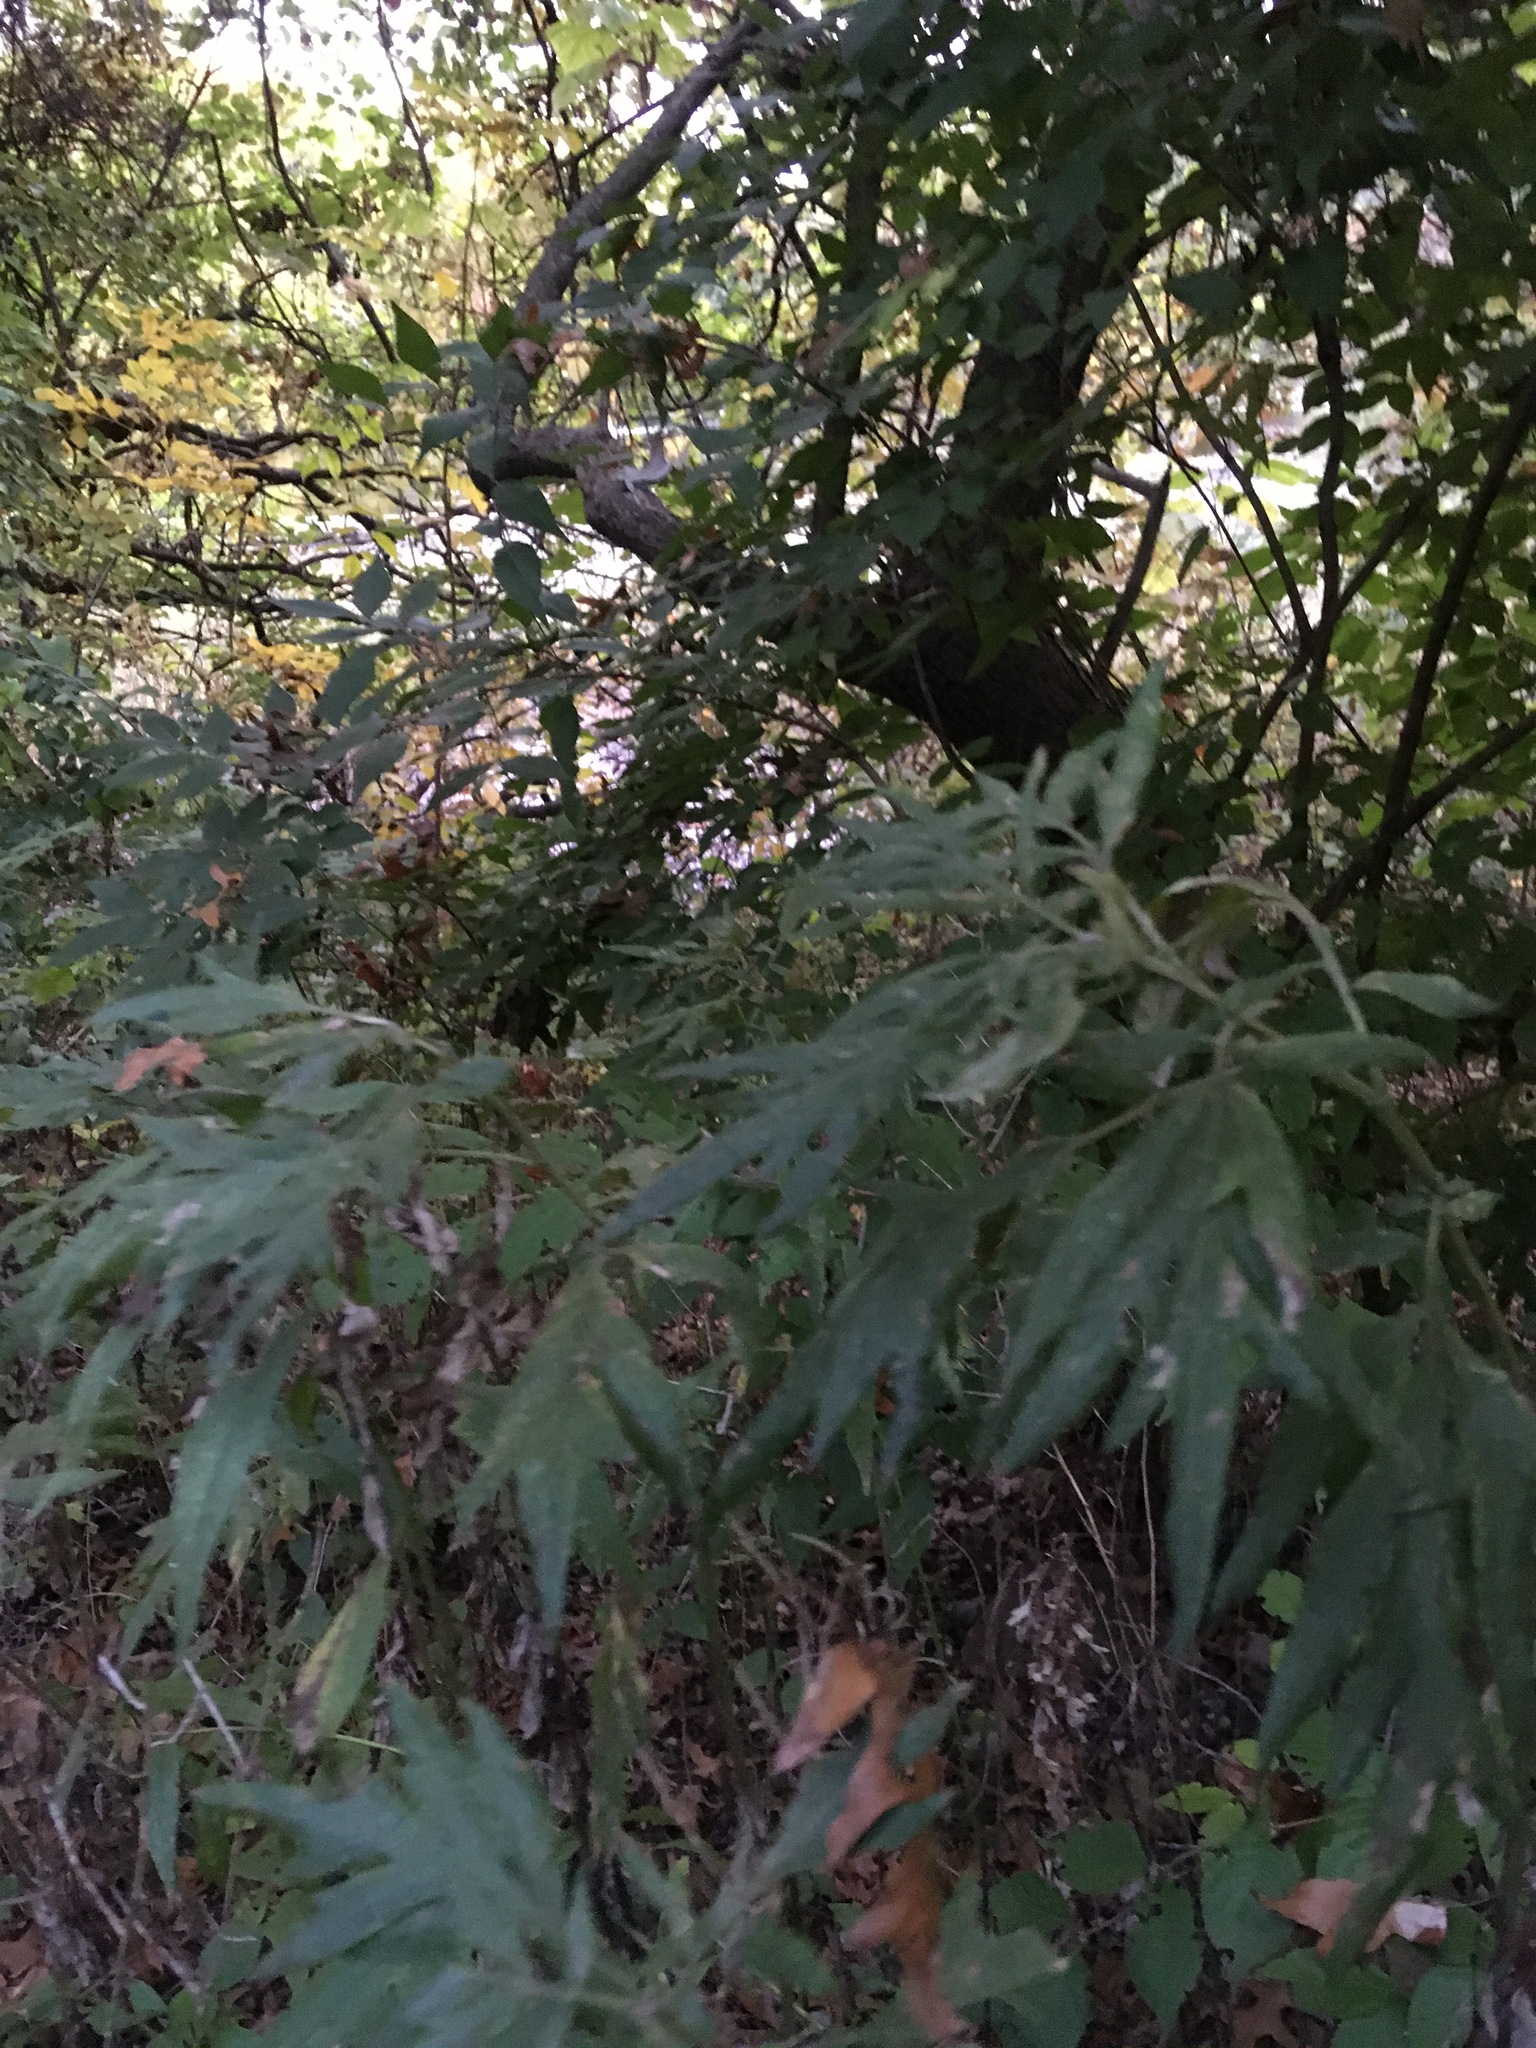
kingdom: Plantae
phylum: Tracheophyta
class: Magnoliopsida
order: Asterales
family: Asteraceae
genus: Artemisia
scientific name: Artemisia vulgaris
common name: Mugwort
